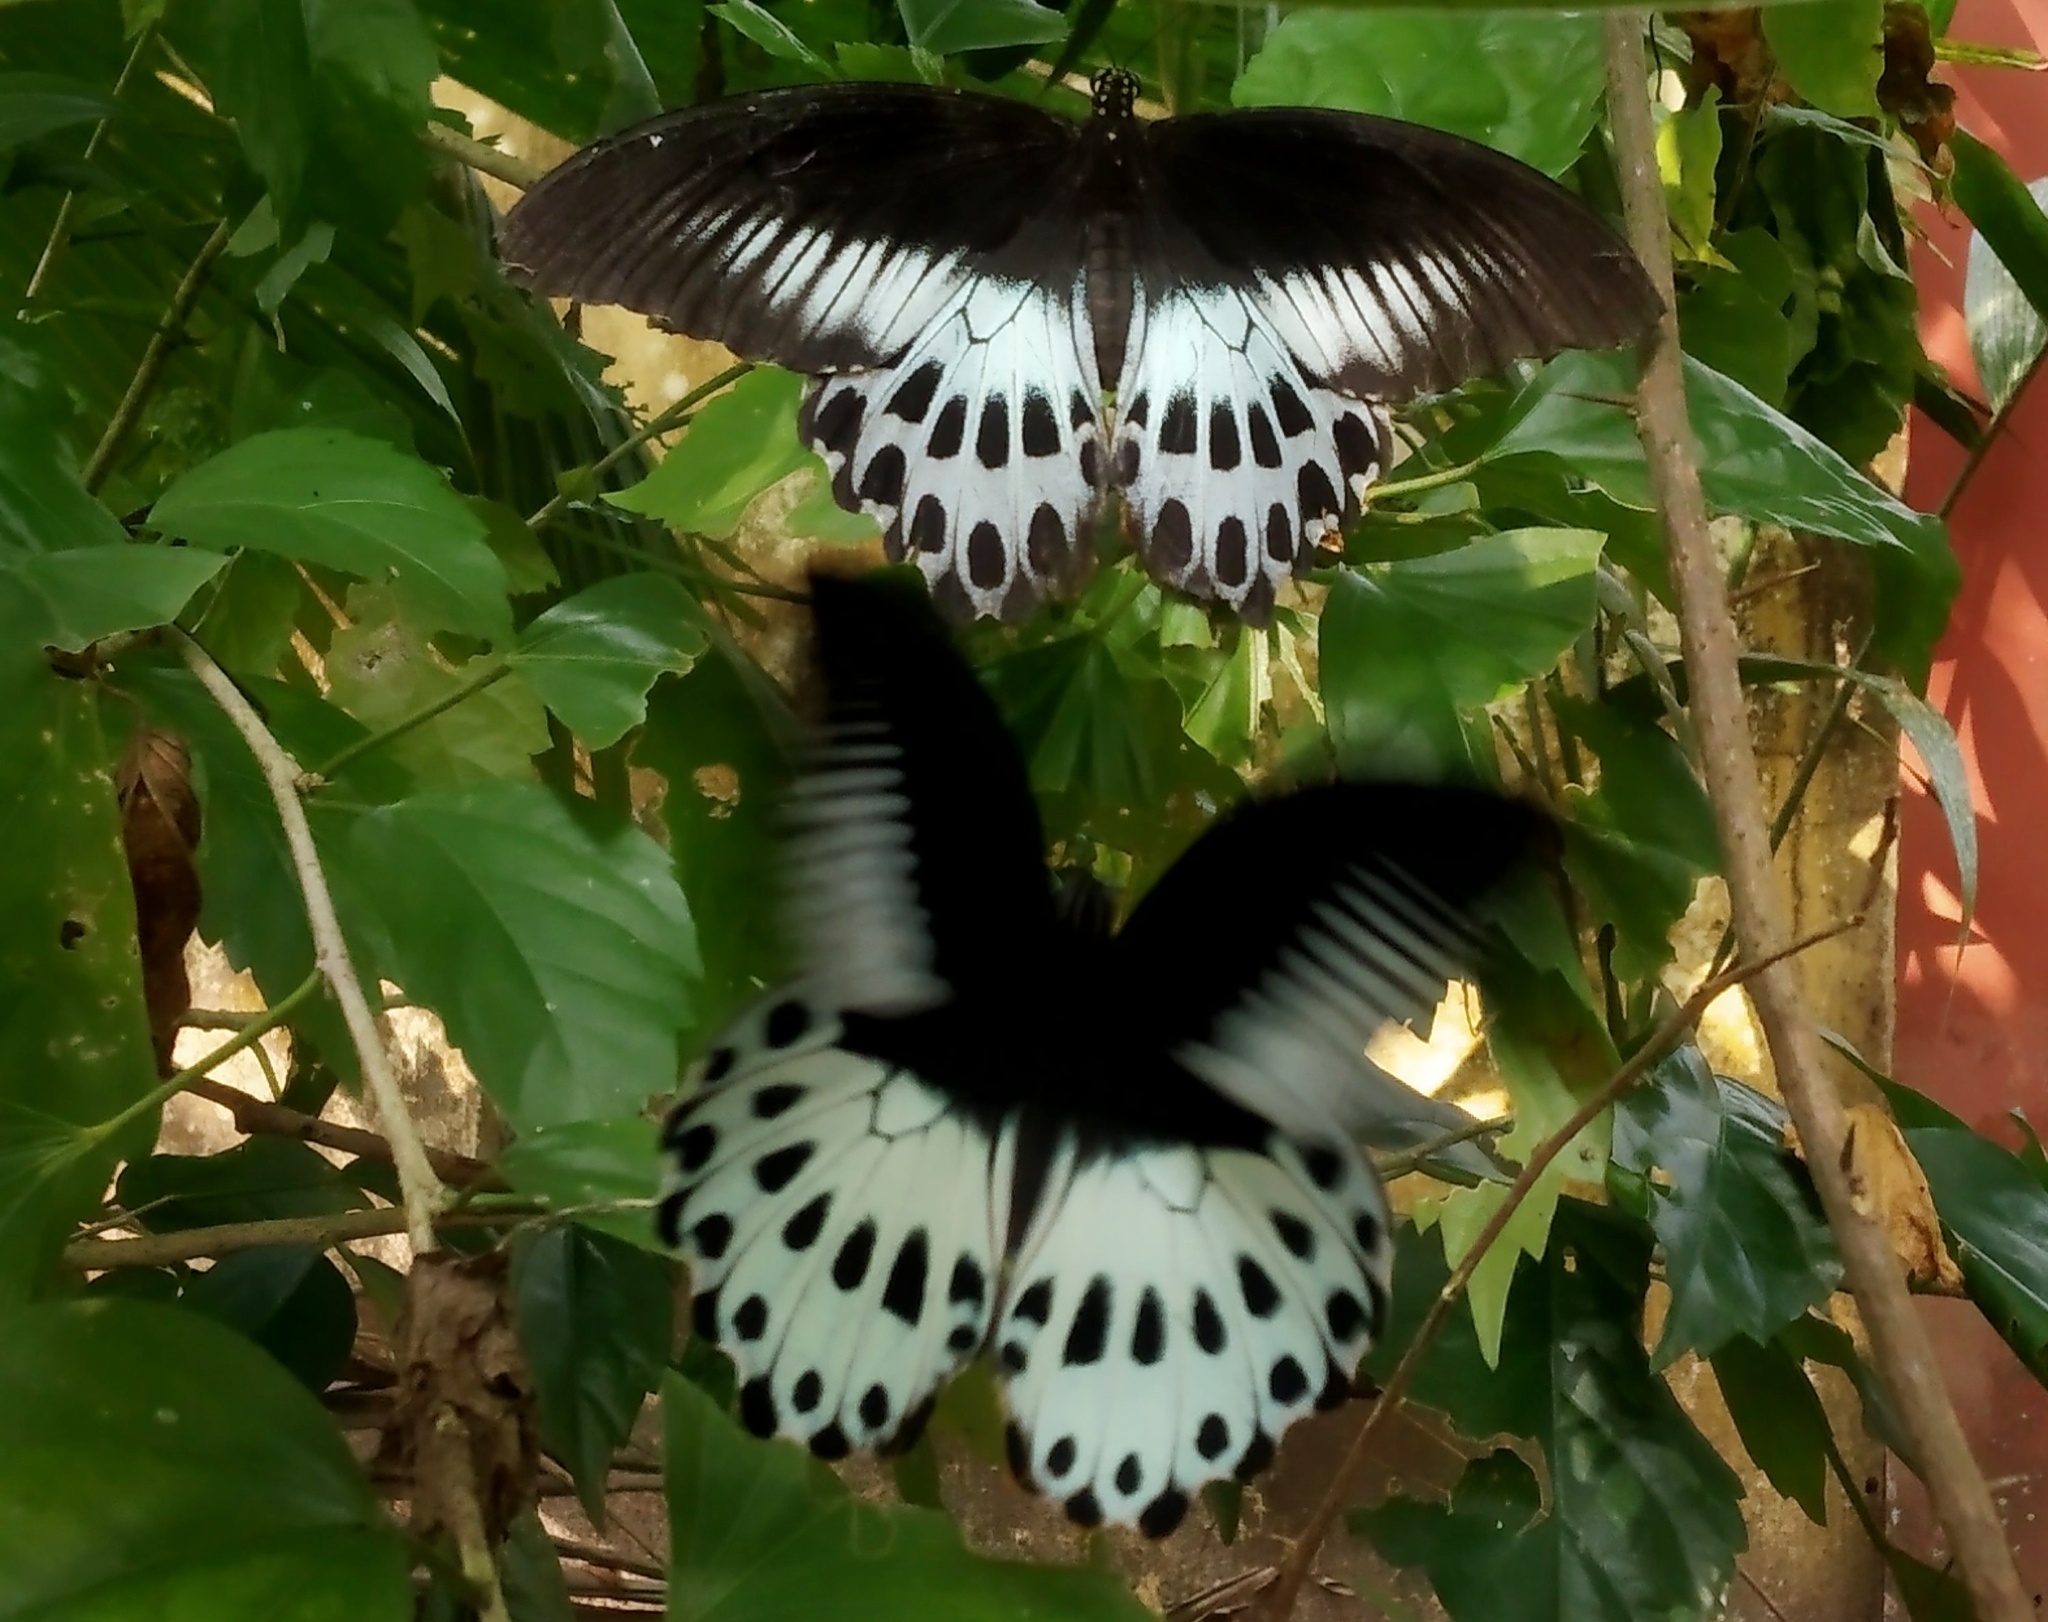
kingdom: Animalia
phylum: Arthropoda
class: Insecta
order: Lepidoptera
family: Papilionidae
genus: Papilio
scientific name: Papilio memnon
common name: Great mormon
